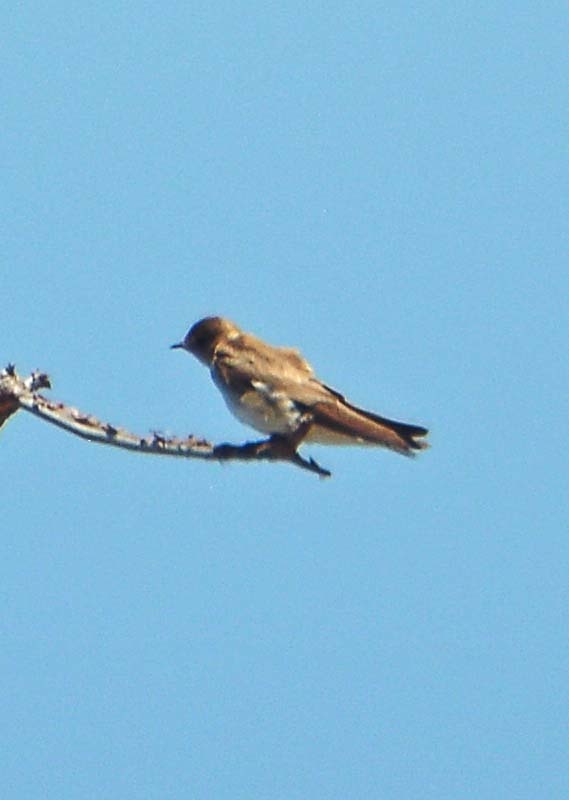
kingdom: Animalia
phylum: Chordata
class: Aves
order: Passeriformes
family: Hirundinidae
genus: Stelgidopteryx
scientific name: Stelgidopteryx serripennis
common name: Northern rough-winged swallow
